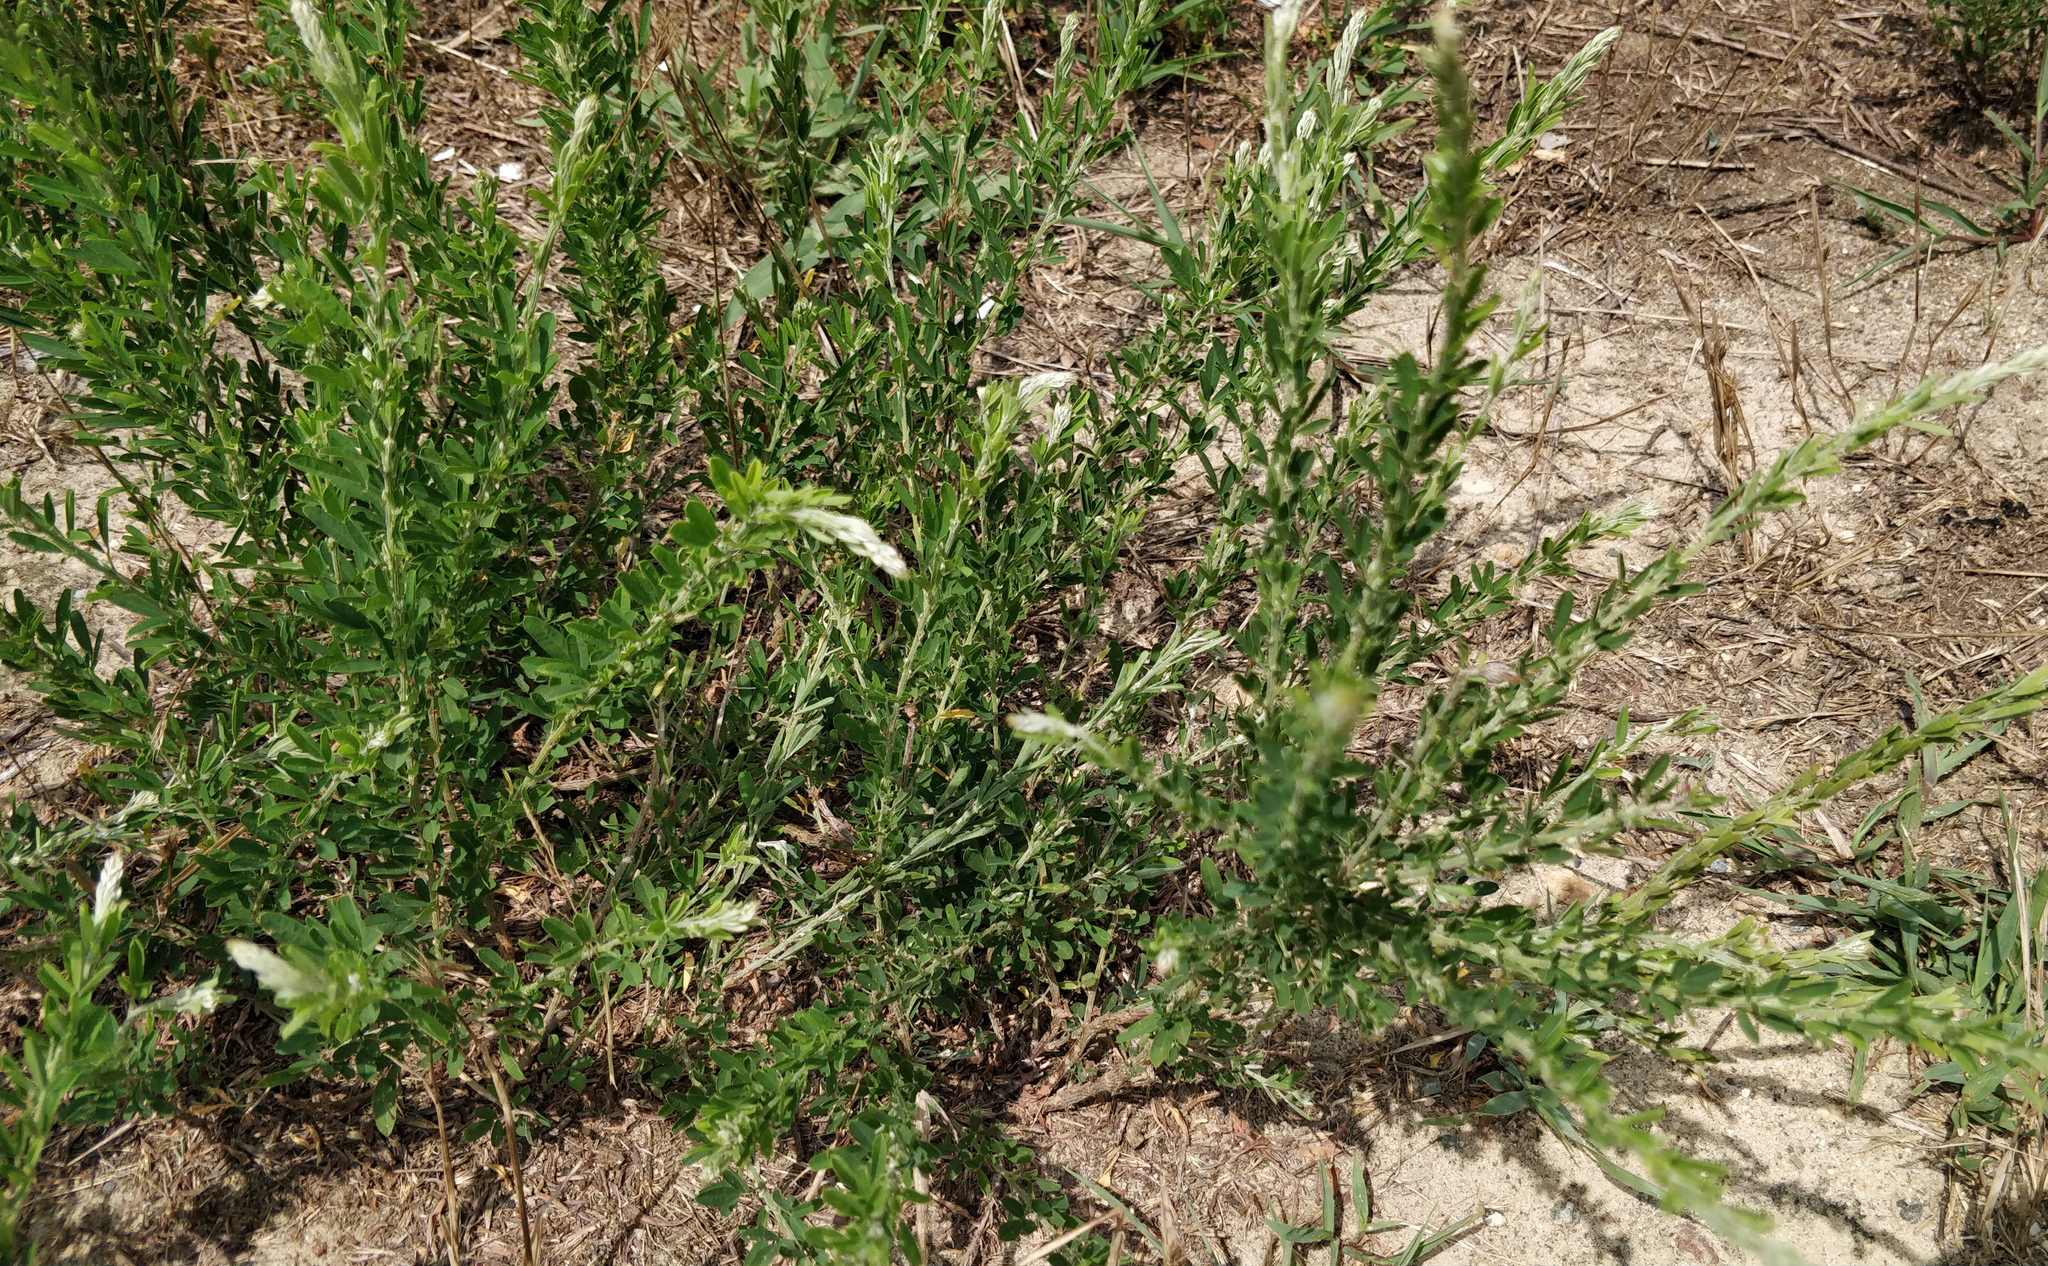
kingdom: Plantae
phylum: Tracheophyta
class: Magnoliopsida
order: Fabales
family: Fabaceae
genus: Lespedeza
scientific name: Lespedeza cuneata
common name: Chinese bush-clover
